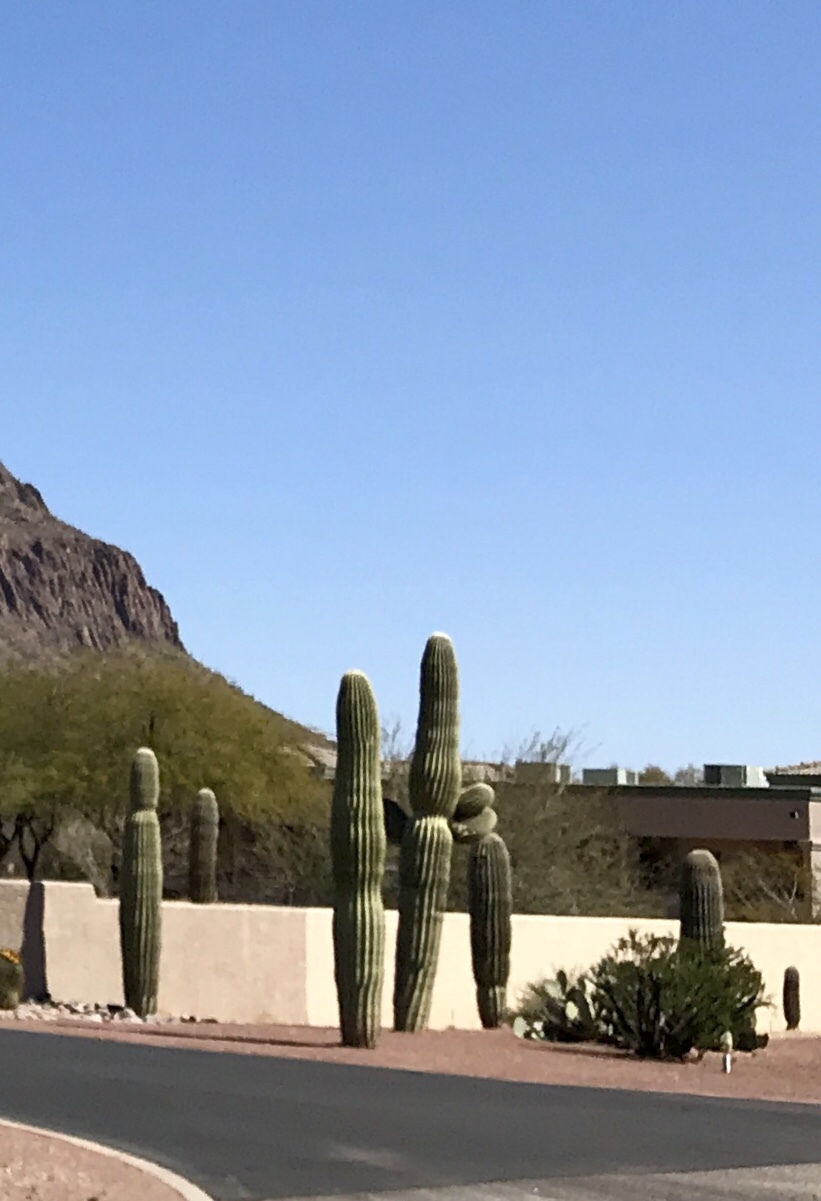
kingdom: Plantae
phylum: Tracheophyta
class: Magnoliopsida
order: Caryophyllales
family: Cactaceae
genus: Carnegiea
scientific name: Carnegiea gigantea
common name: Saguaro
